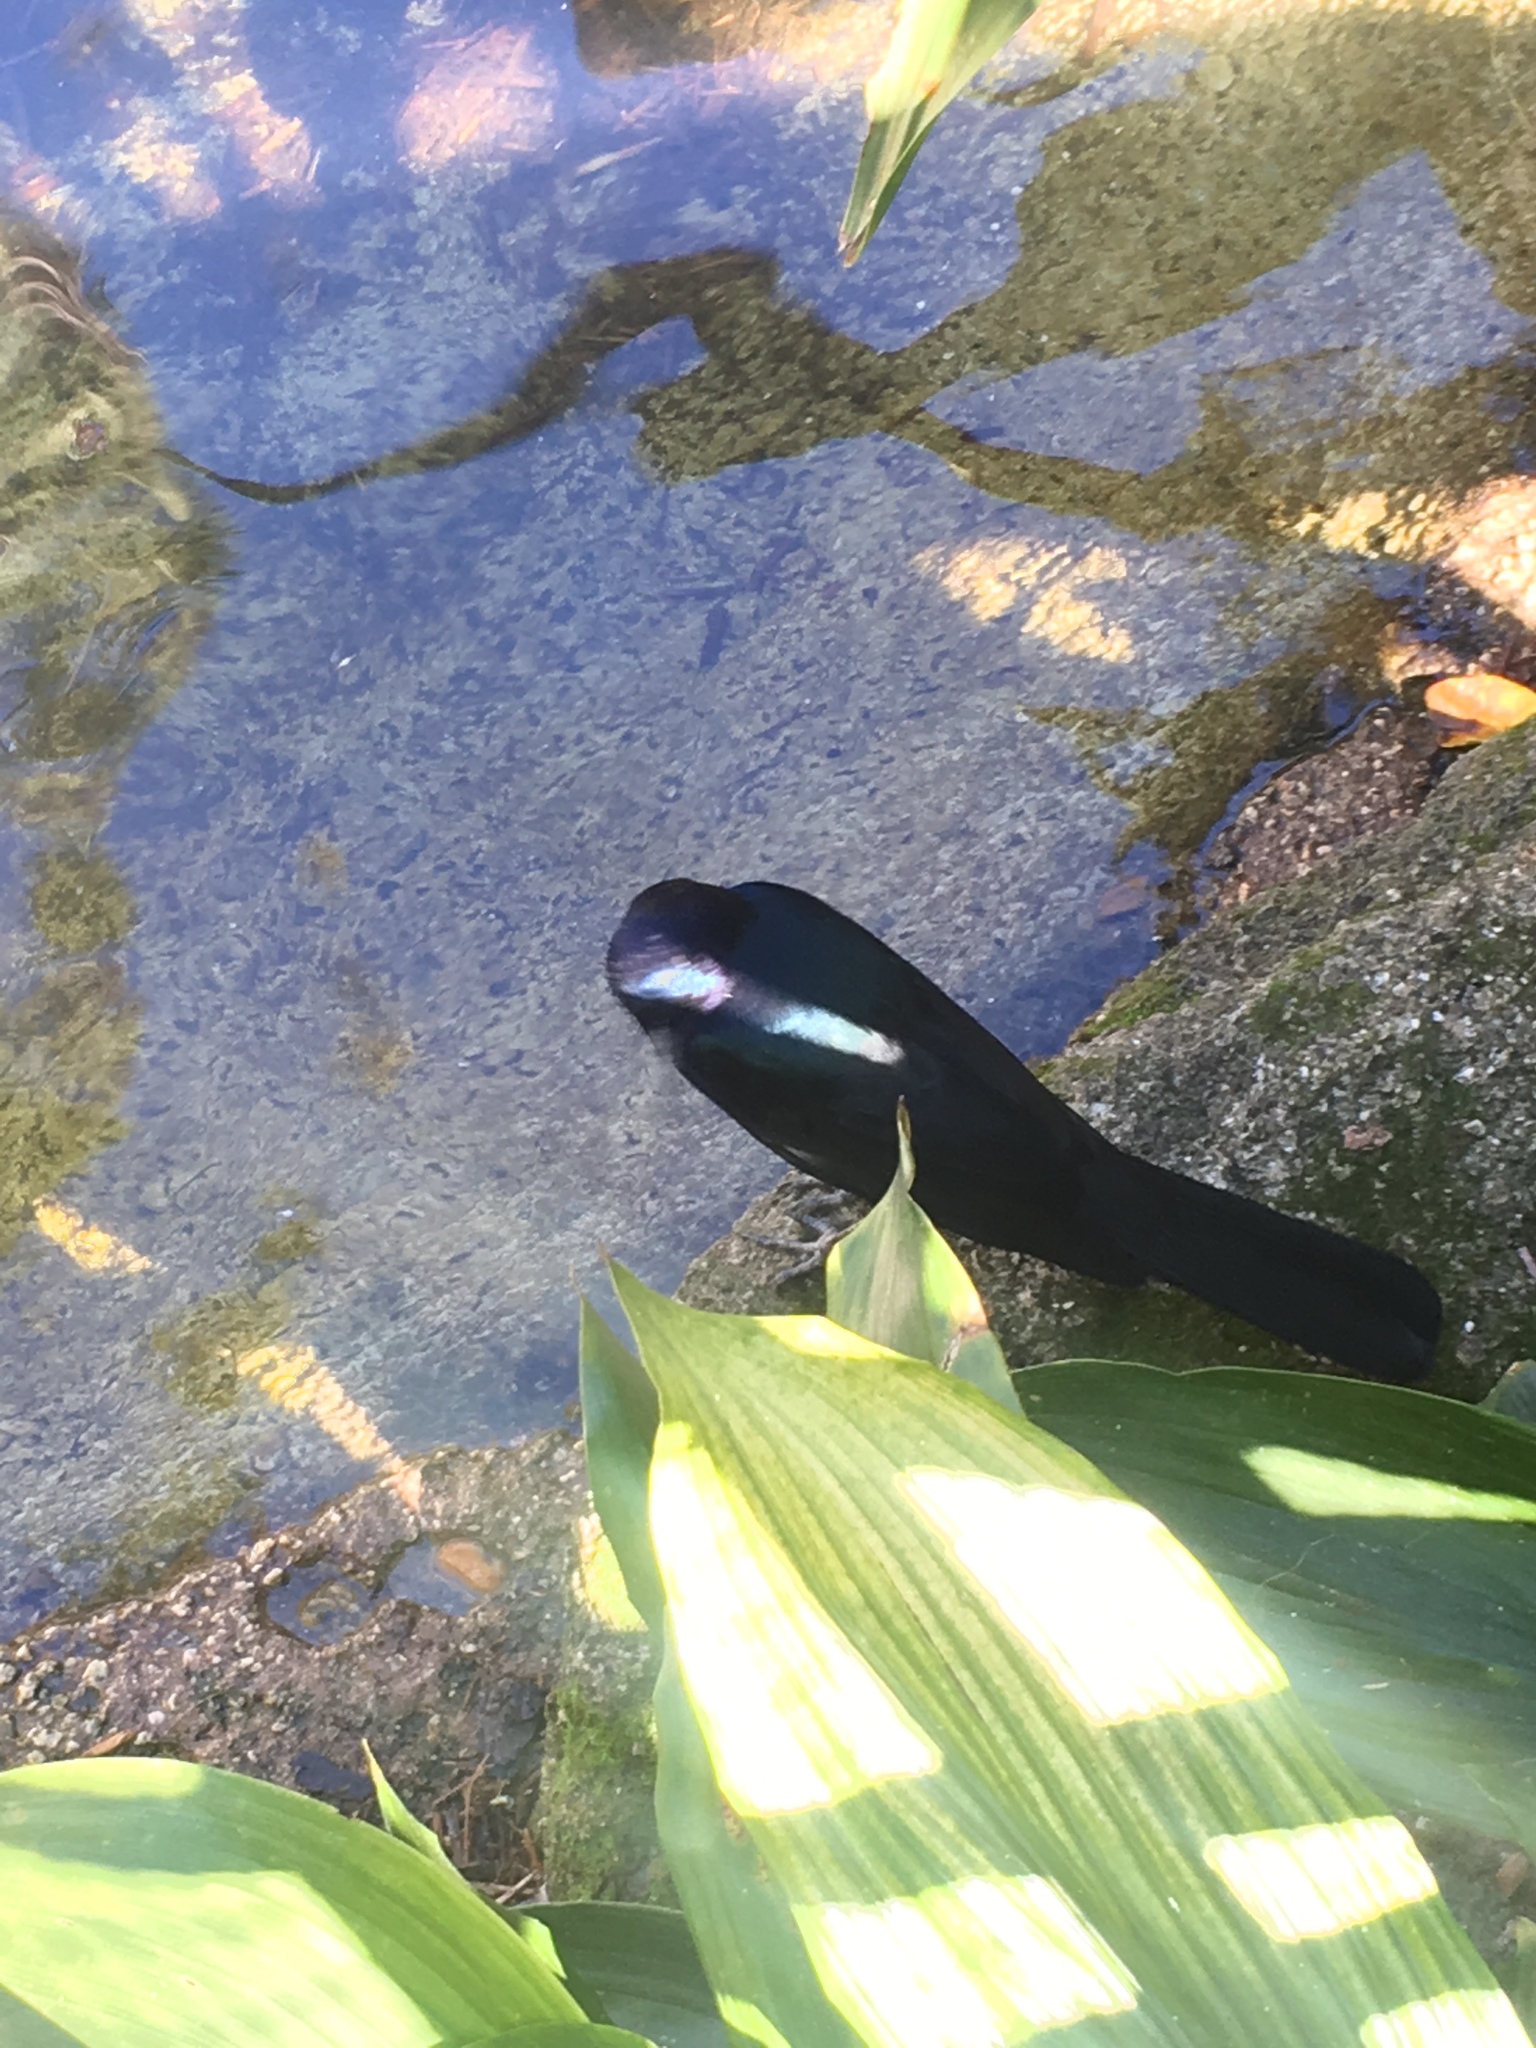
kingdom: Animalia
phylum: Chordata
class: Aves
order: Passeriformes
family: Icteridae
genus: Quiscalus
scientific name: Quiscalus major
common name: Boat-tailed grackle
